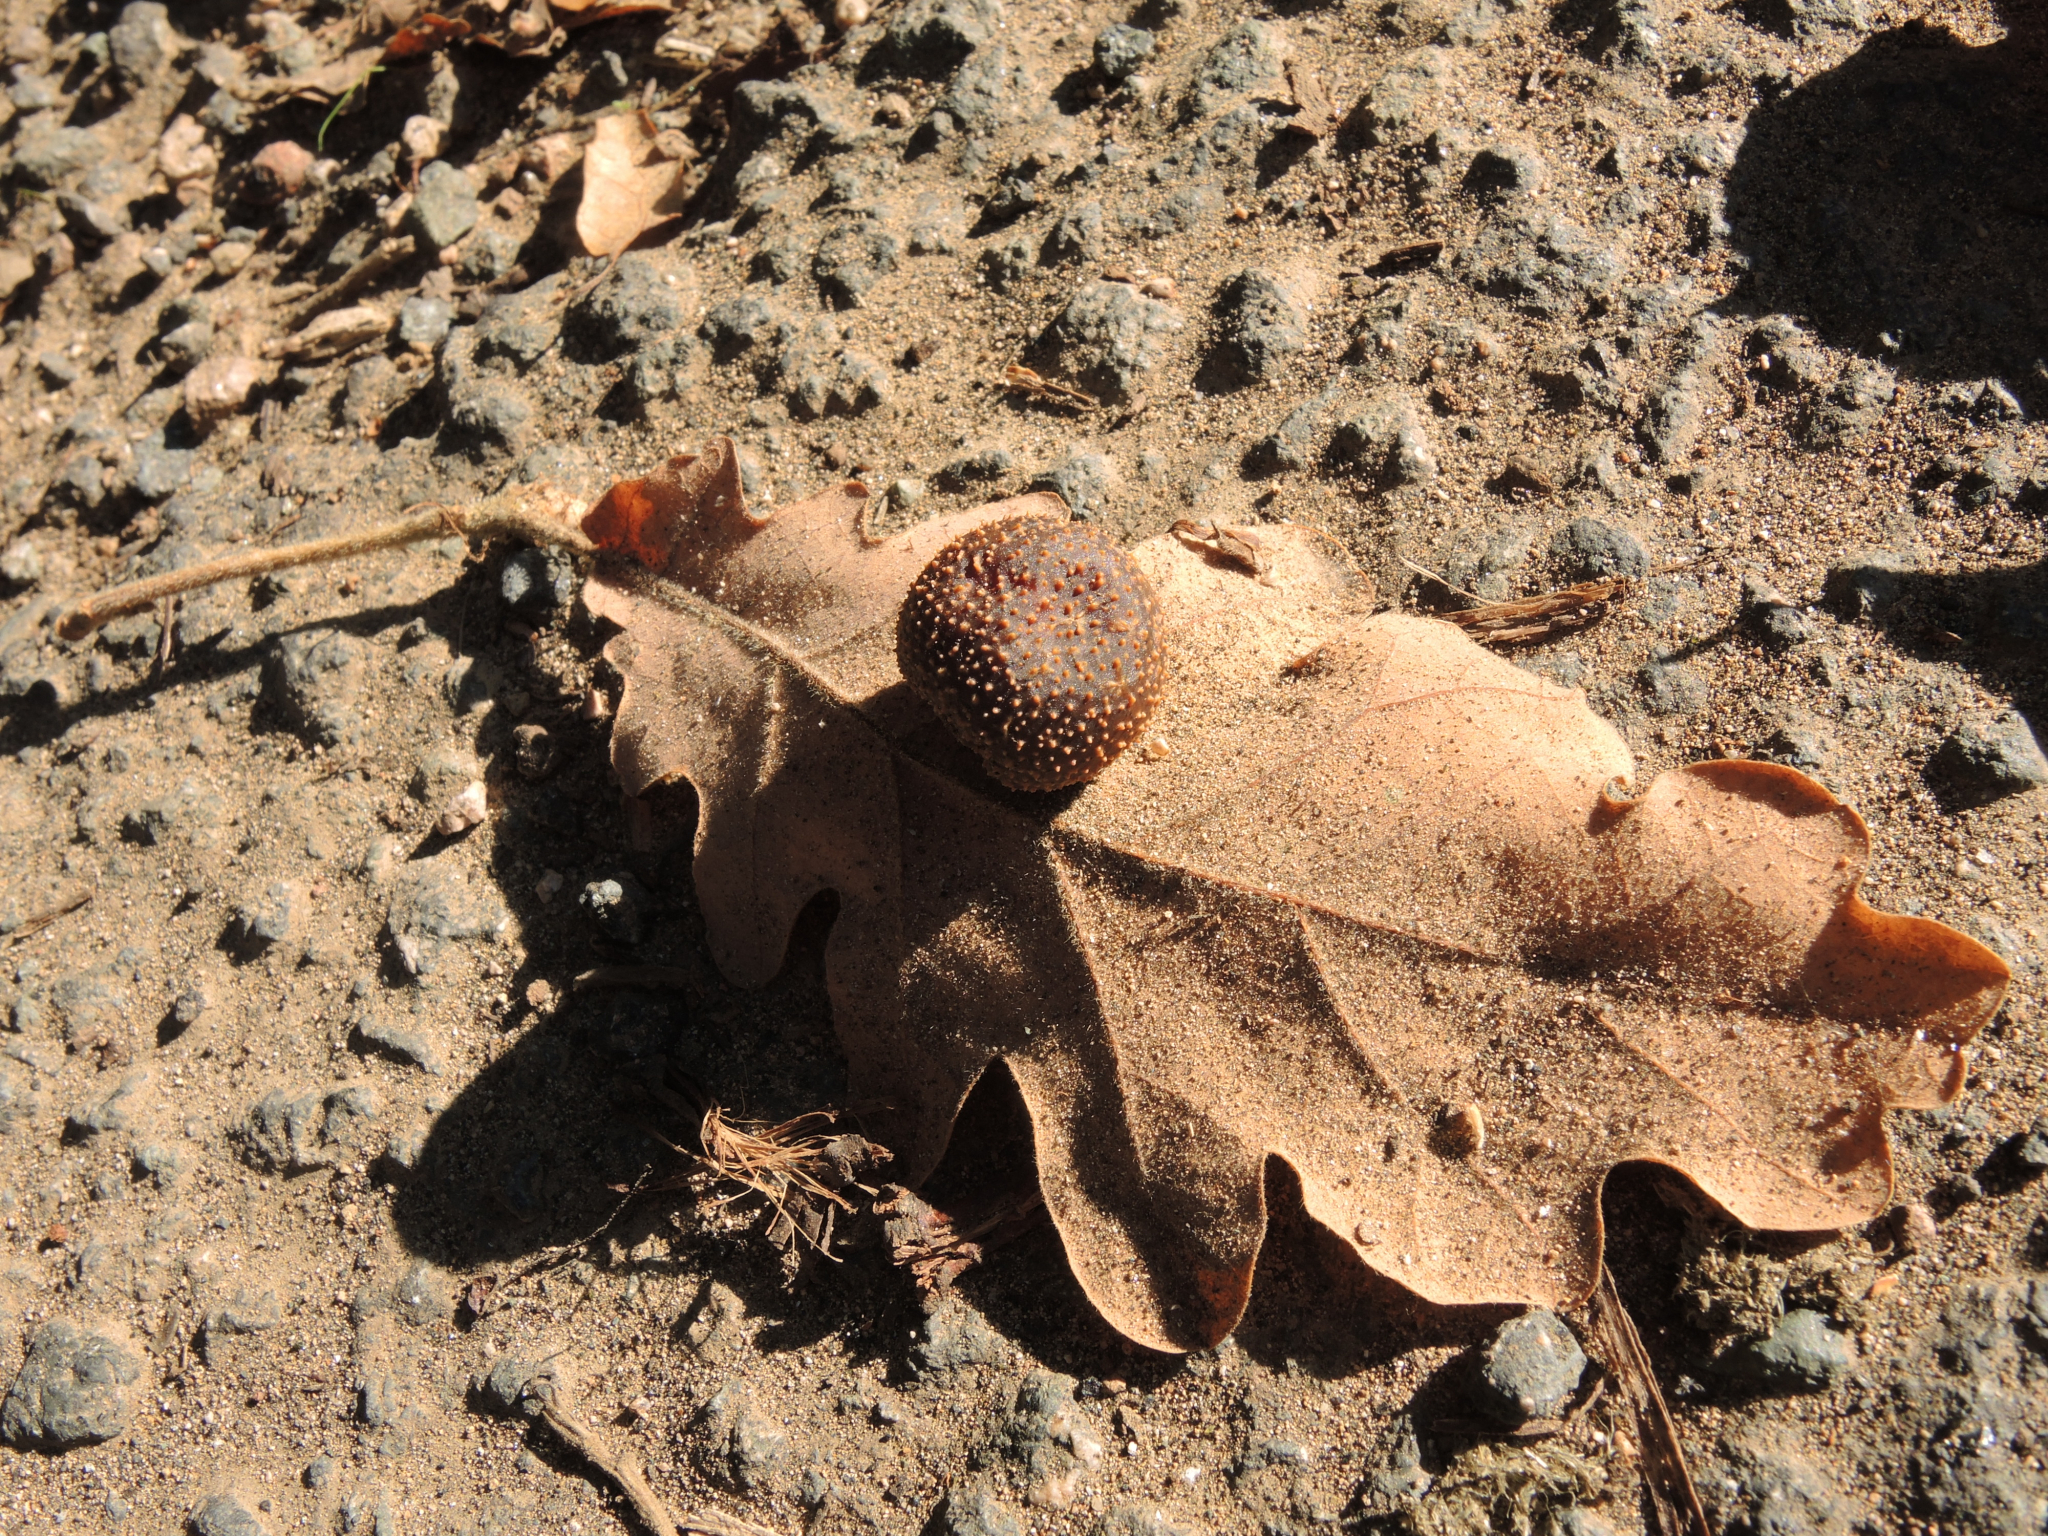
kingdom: Animalia
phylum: Arthropoda
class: Insecta
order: Hymenoptera
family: Cynipidae
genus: Cynips
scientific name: Cynips quercusfolii
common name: Cherry gall
